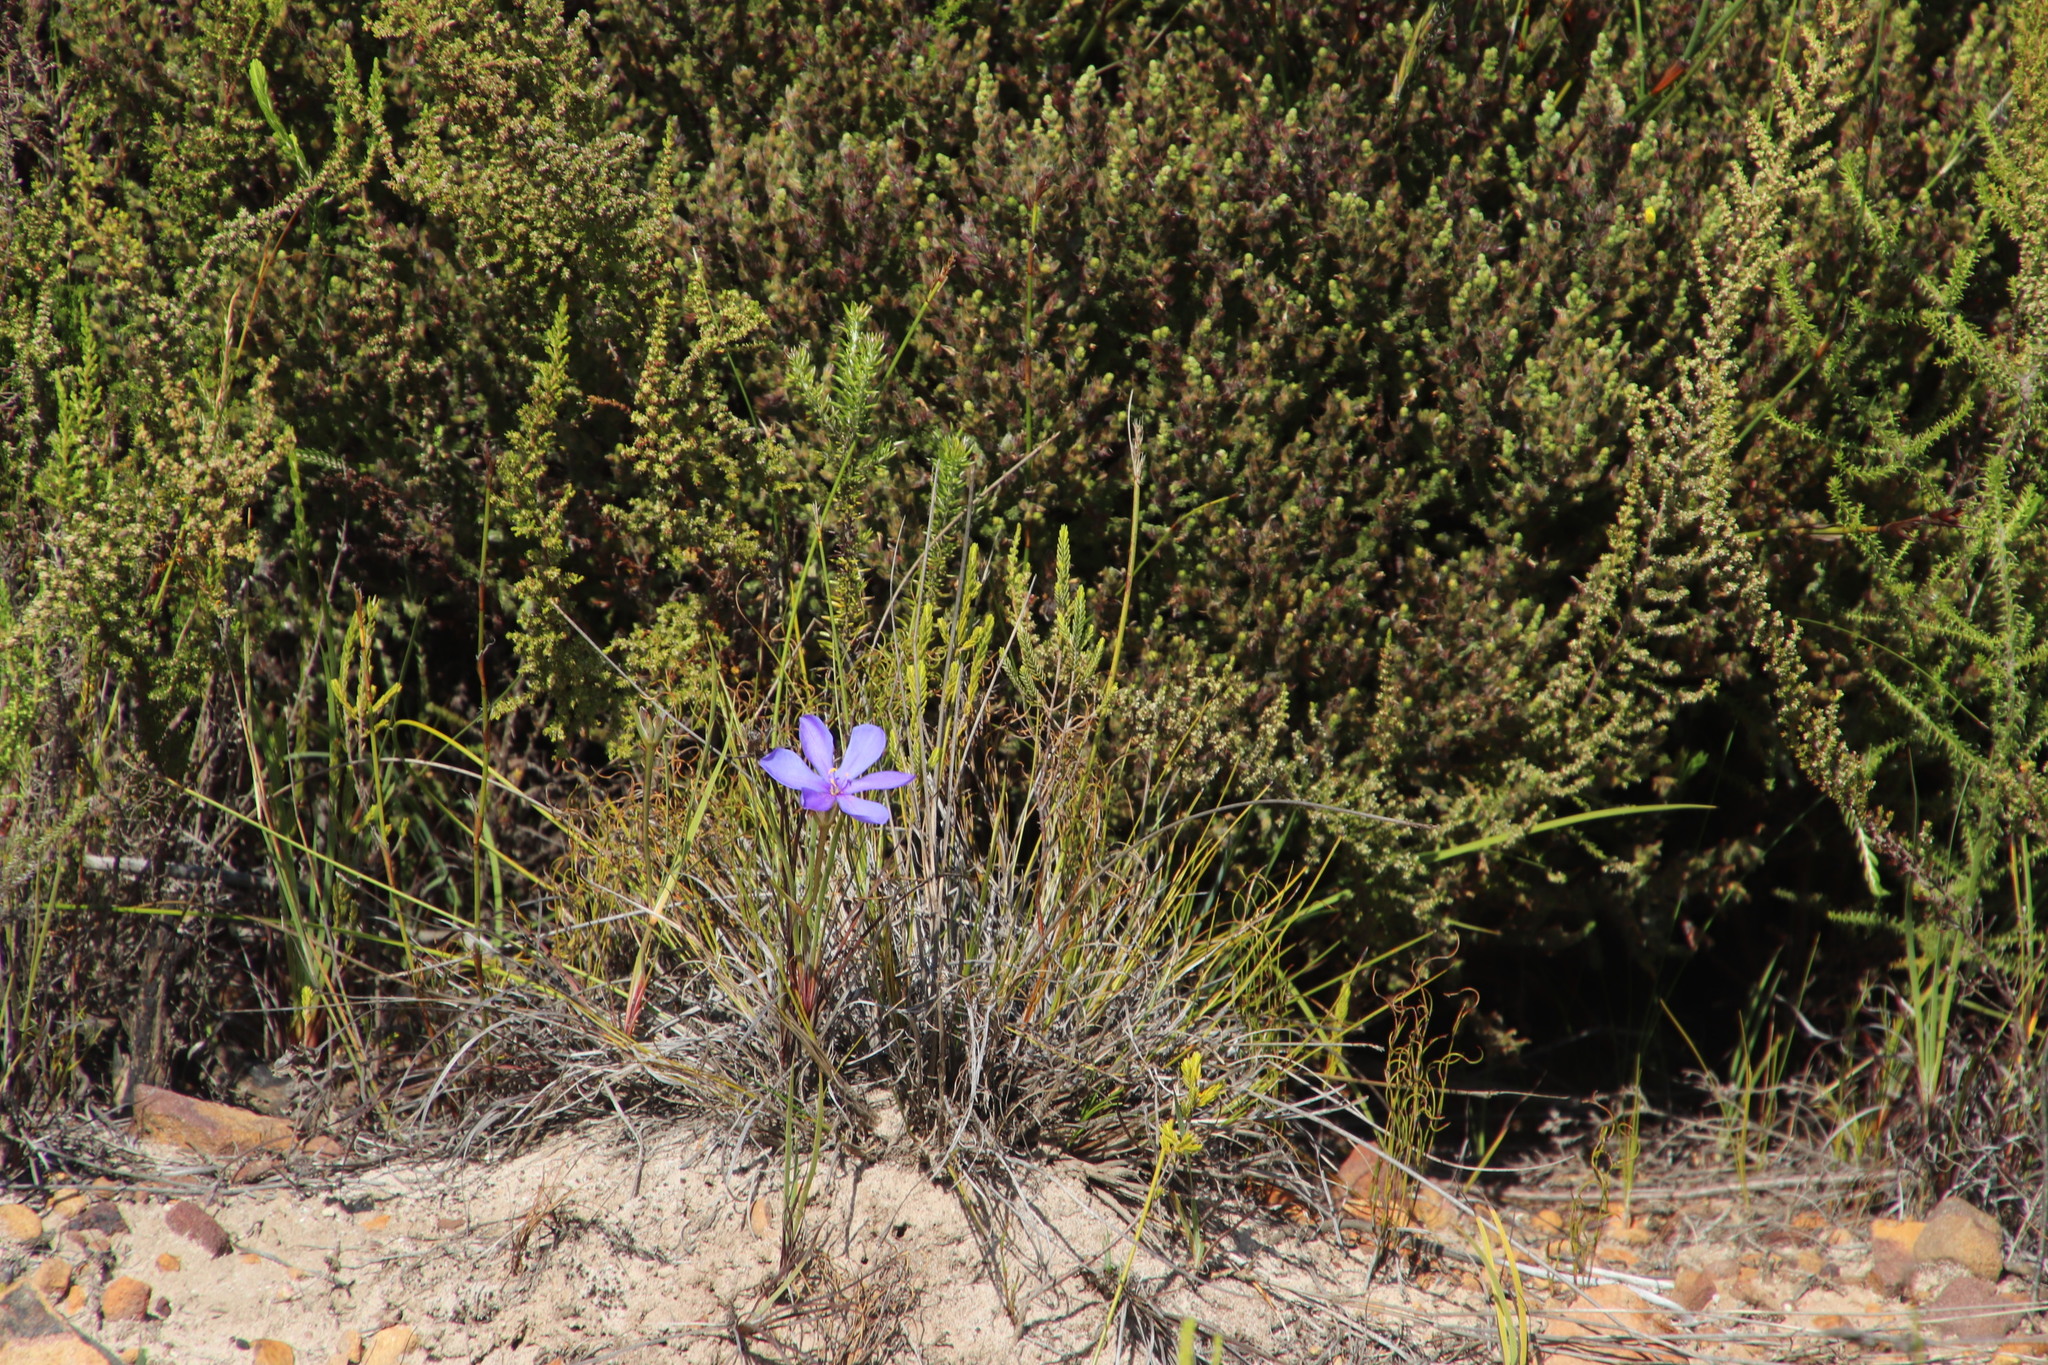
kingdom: Plantae
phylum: Tracheophyta
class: Liliopsida
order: Asparagales
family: Iridaceae
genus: Aristea
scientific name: Aristea africana
